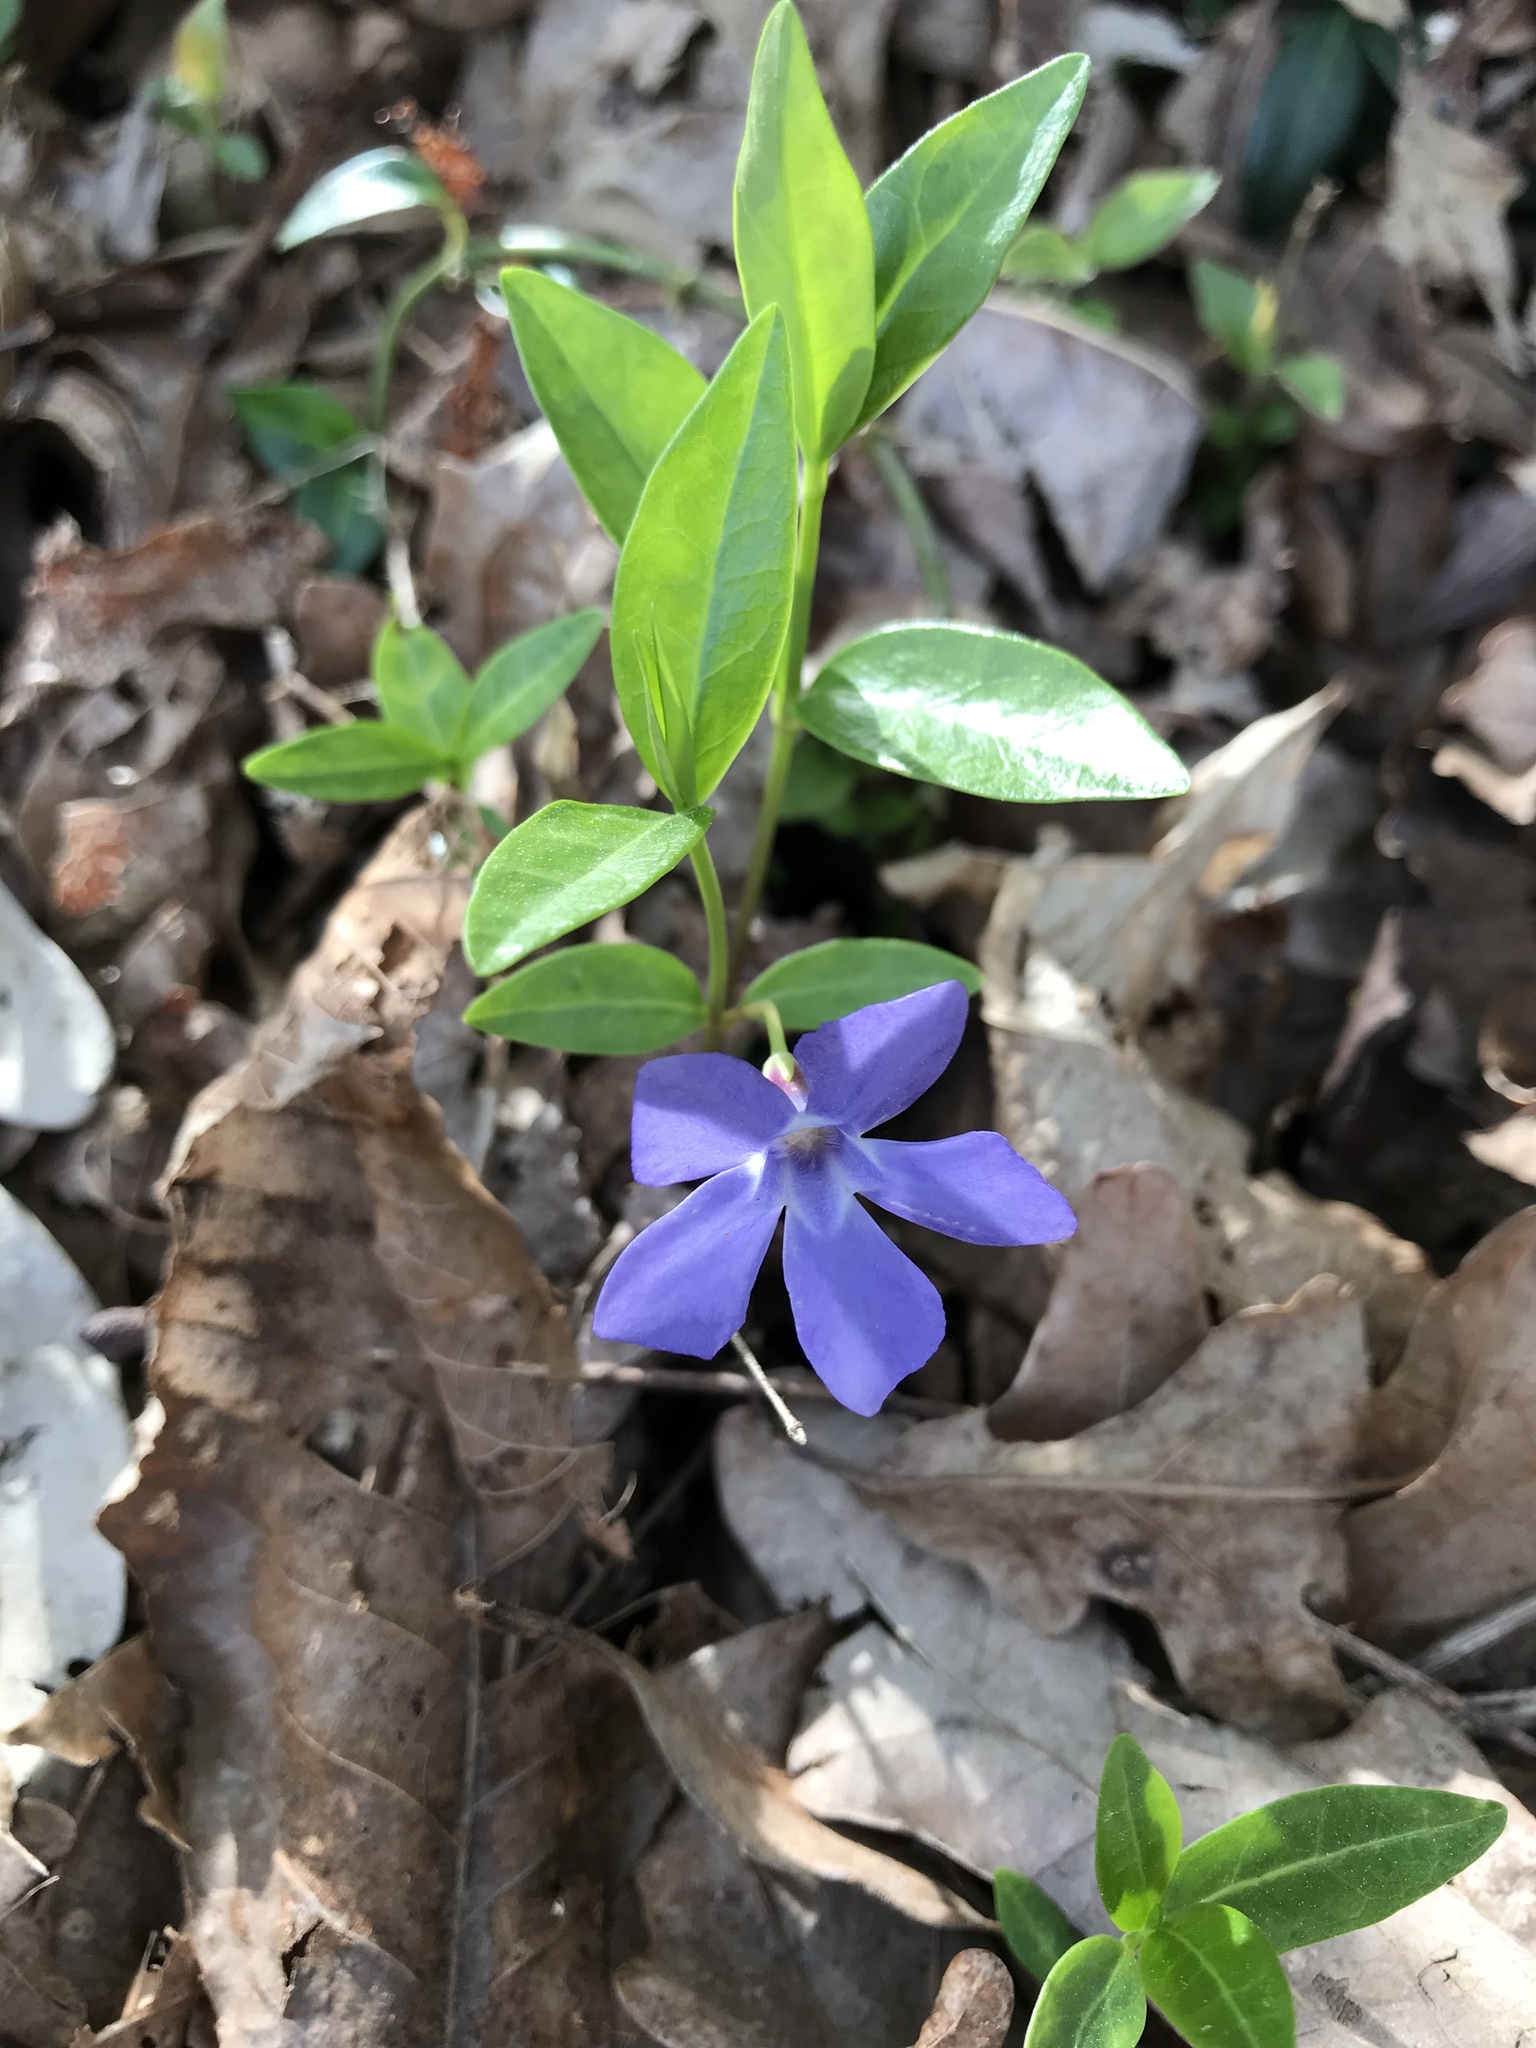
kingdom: Plantae
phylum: Tracheophyta
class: Magnoliopsida
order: Gentianales
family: Apocynaceae
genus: Vinca
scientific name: Vinca minor
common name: Lesser periwinkle
